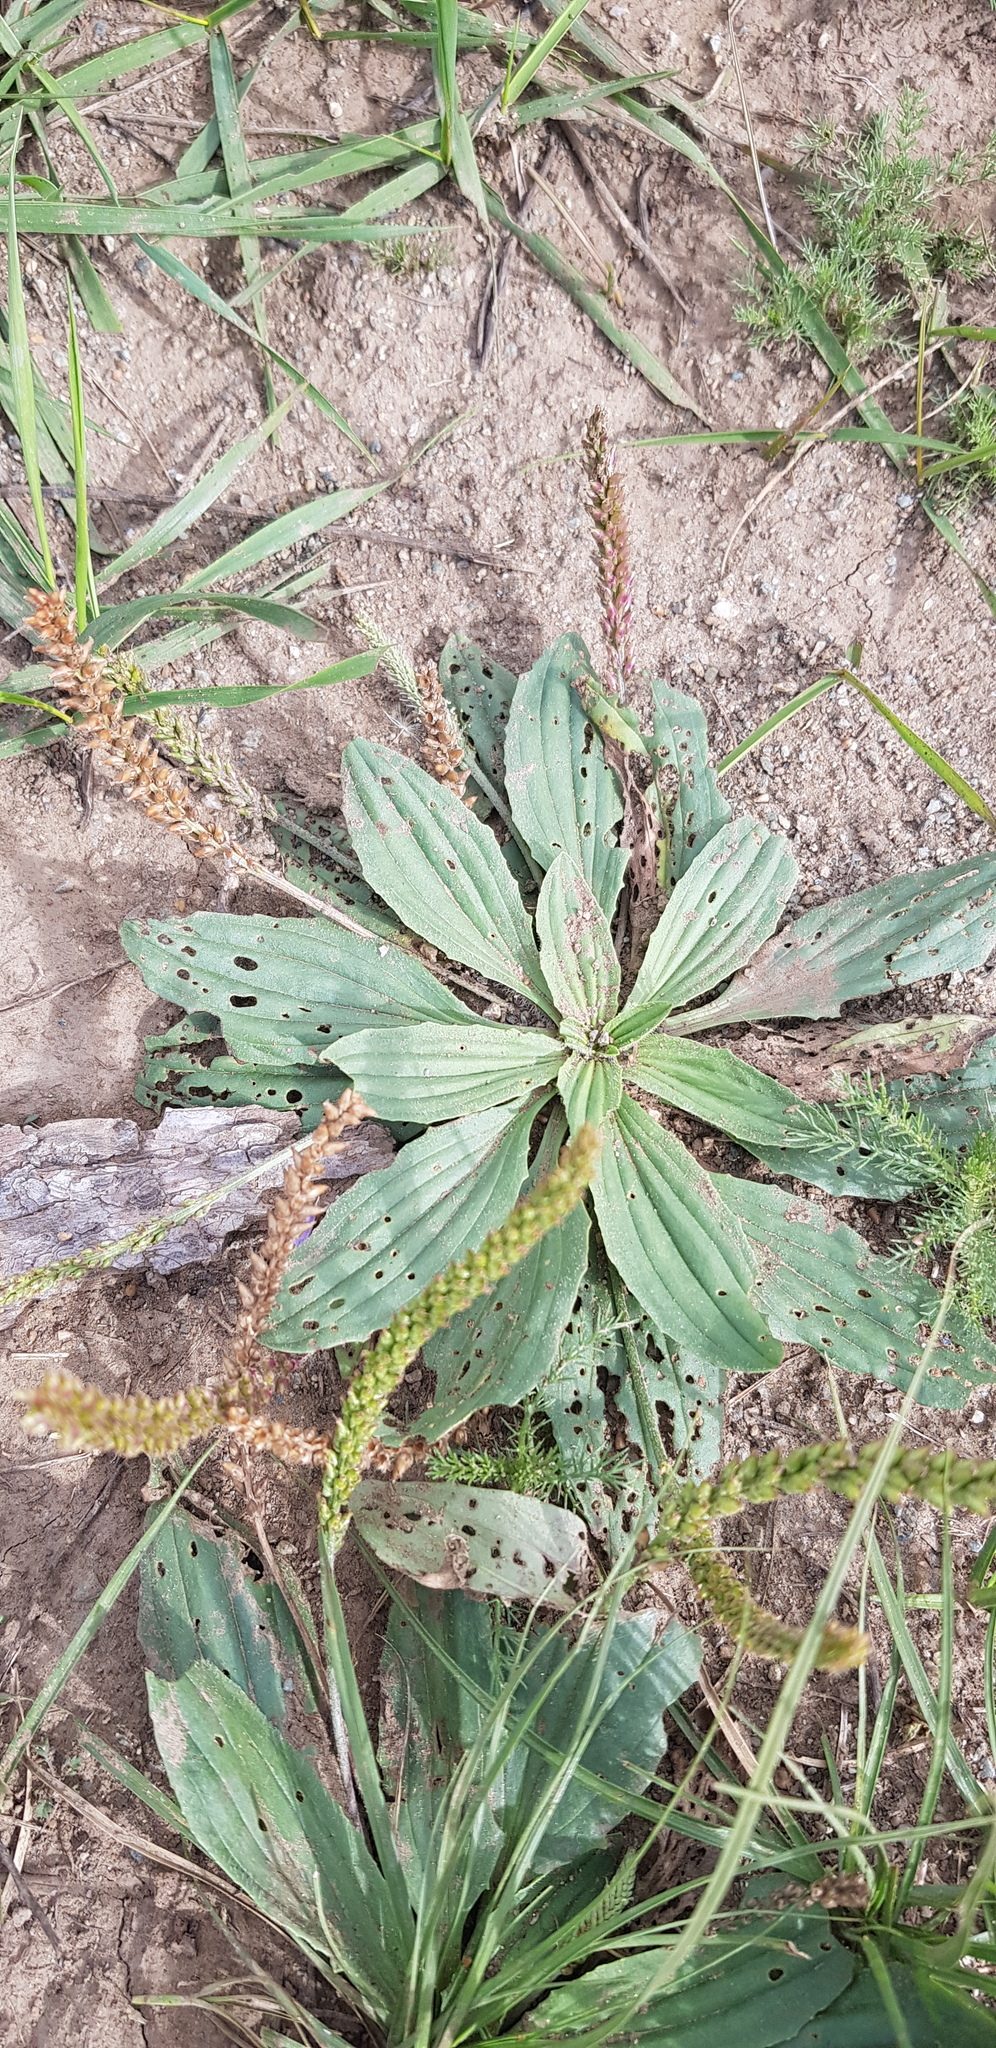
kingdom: Plantae
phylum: Tracheophyta
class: Magnoliopsida
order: Lamiales
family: Plantaginaceae
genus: Plantago
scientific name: Plantago depressa
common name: Depressed plantain
